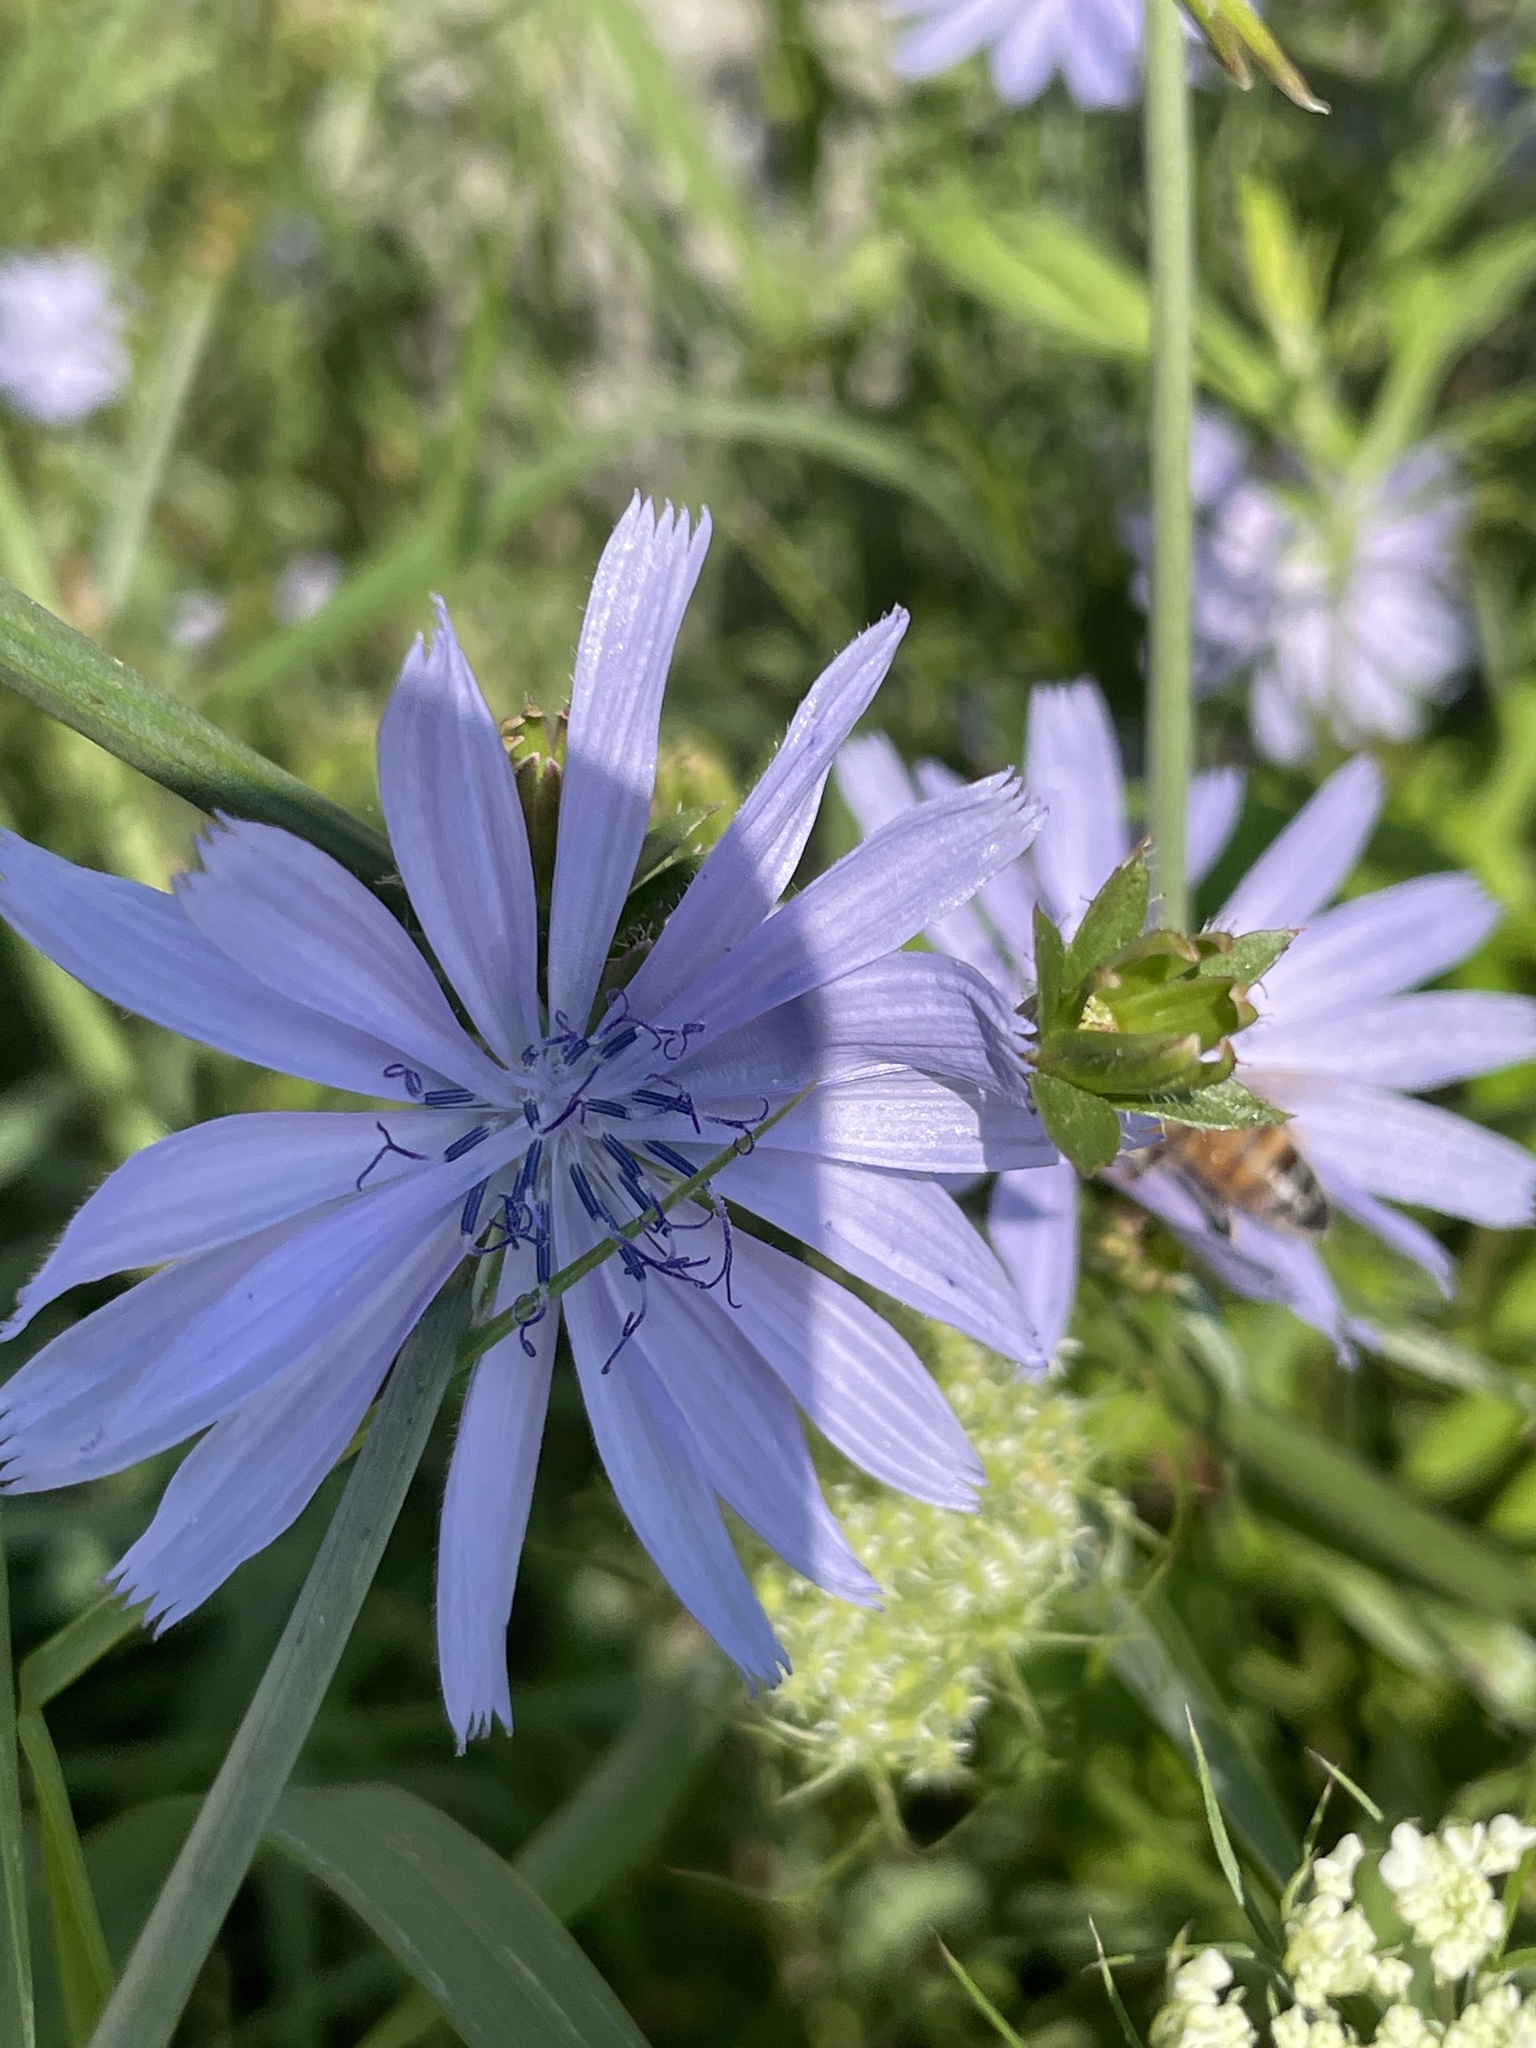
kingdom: Plantae
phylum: Tracheophyta
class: Magnoliopsida
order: Asterales
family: Asteraceae
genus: Cichorium
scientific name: Cichorium intybus
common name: Chicory
